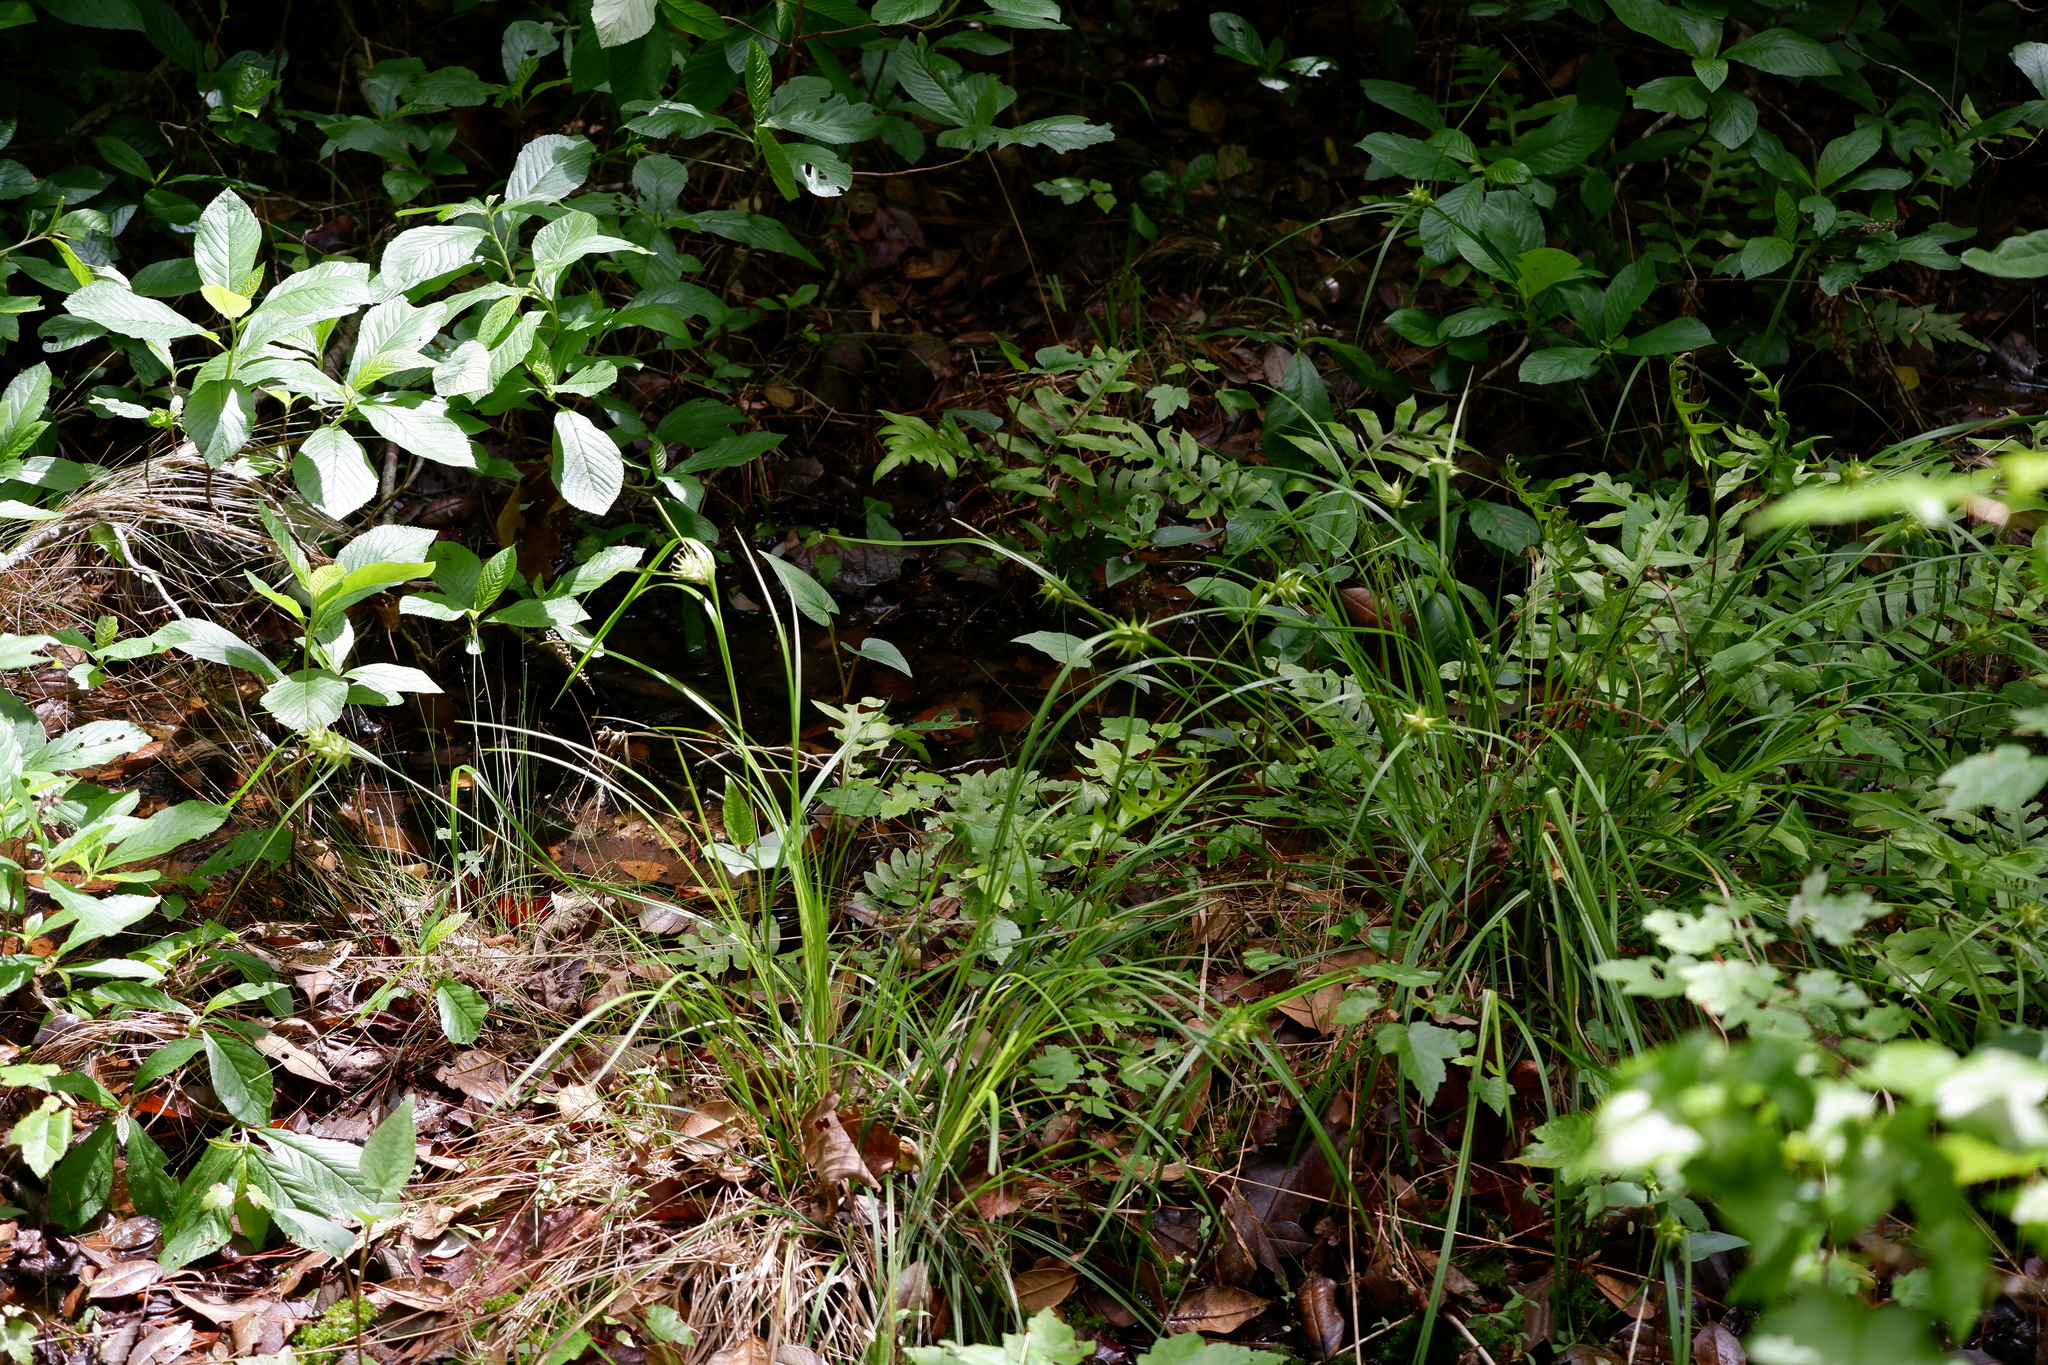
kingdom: Plantae
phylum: Tracheophyta
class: Liliopsida
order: Poales
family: Cyperaceae
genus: Carex
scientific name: Carex intumescens
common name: Greater bladder sedge
